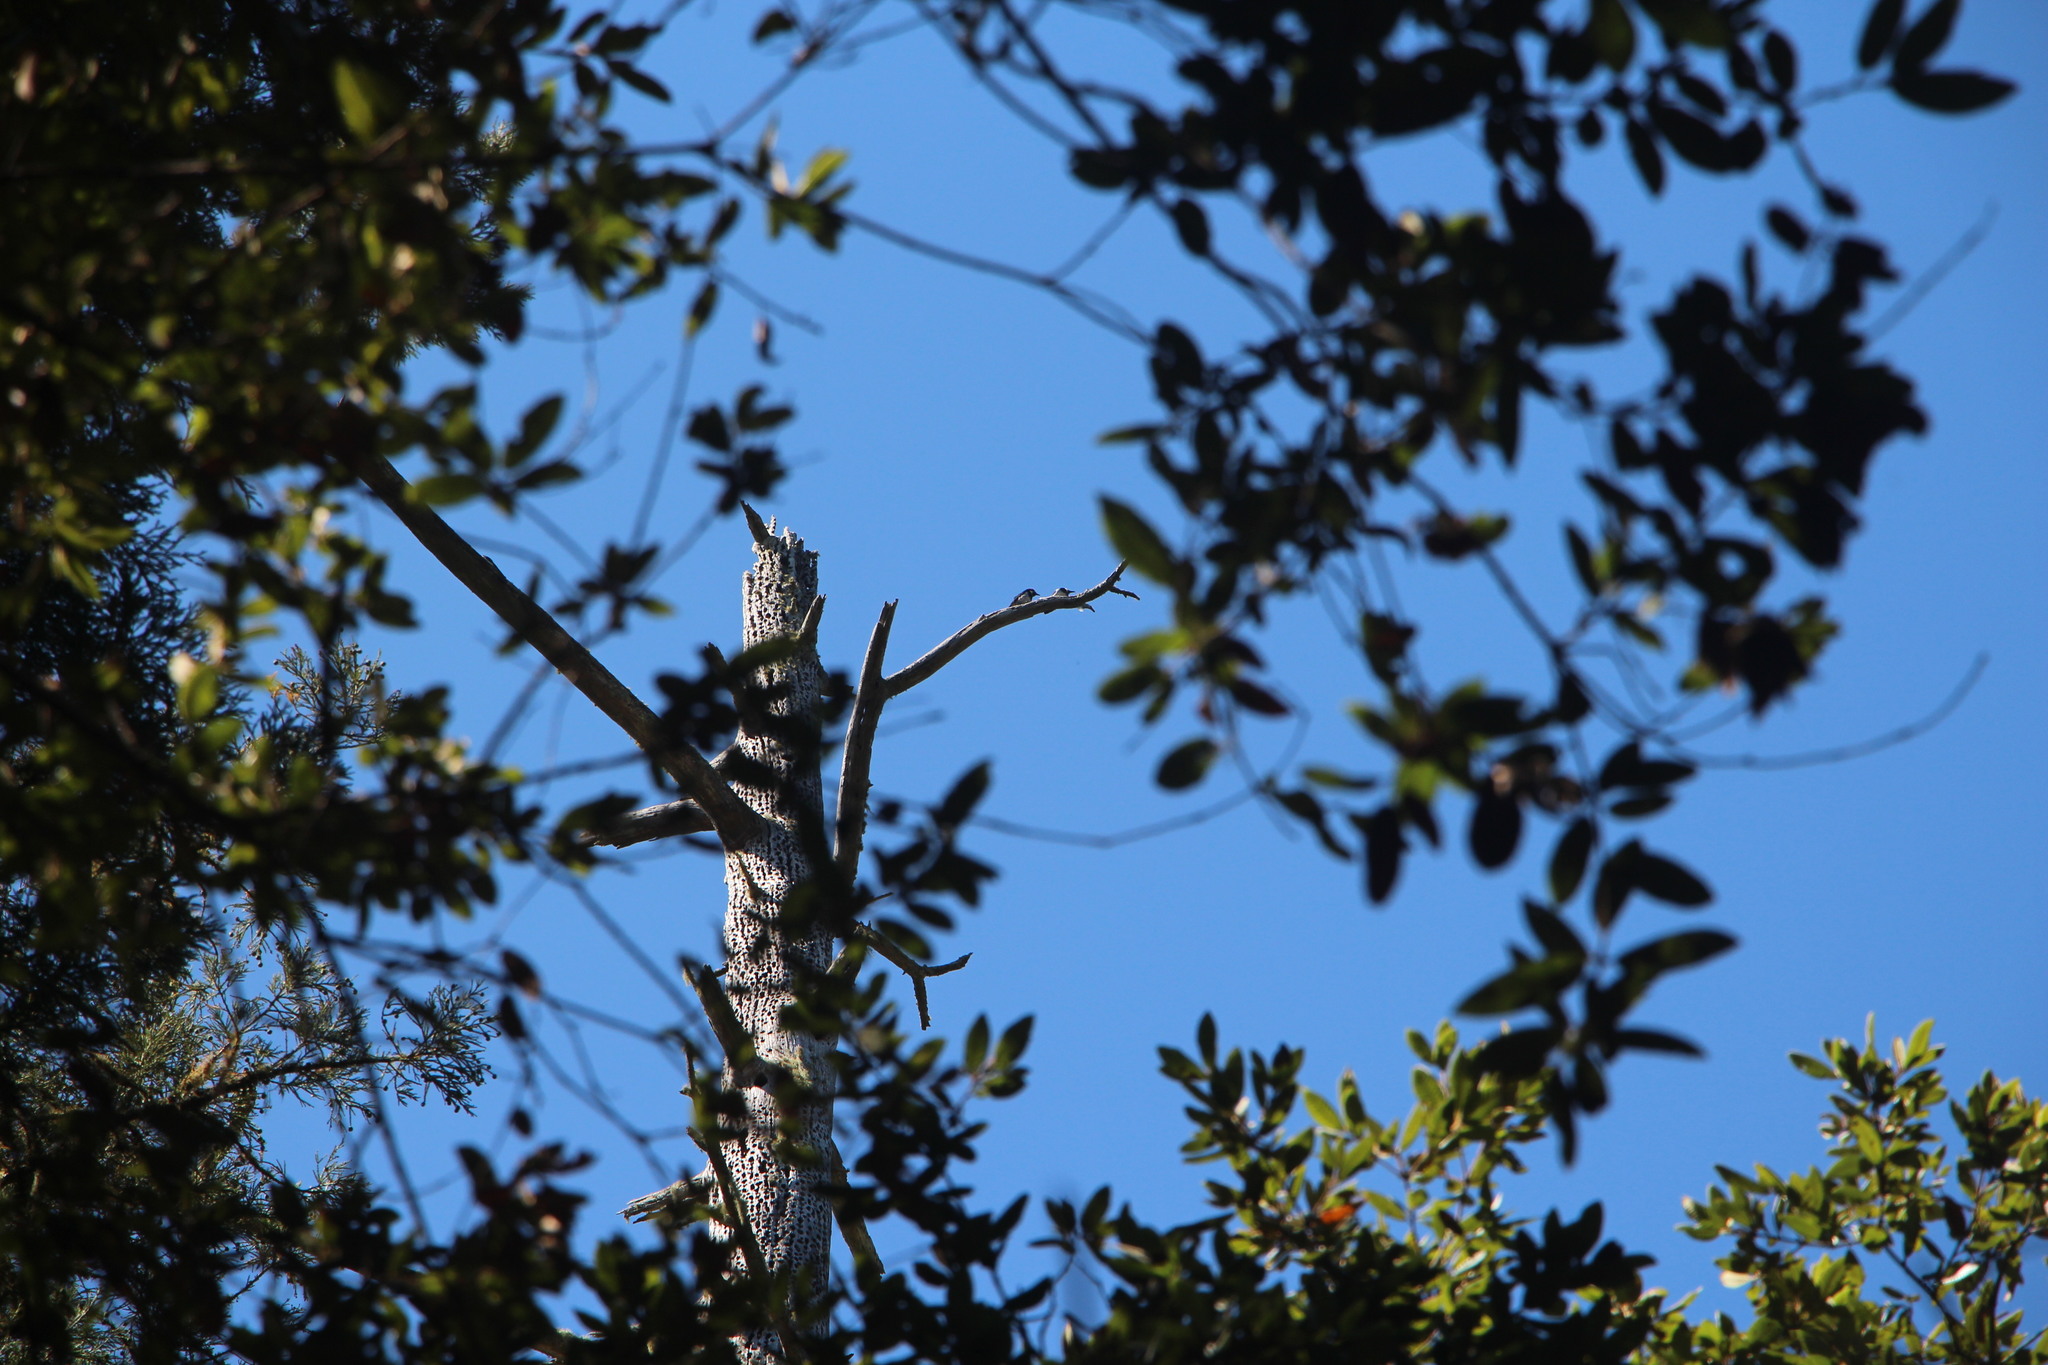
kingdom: Animalia
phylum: Chordata
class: Aves
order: Piciformes
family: Picidae
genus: Melanerpes
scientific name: Melanerpes formicivorus
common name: Acorn woodpecker
